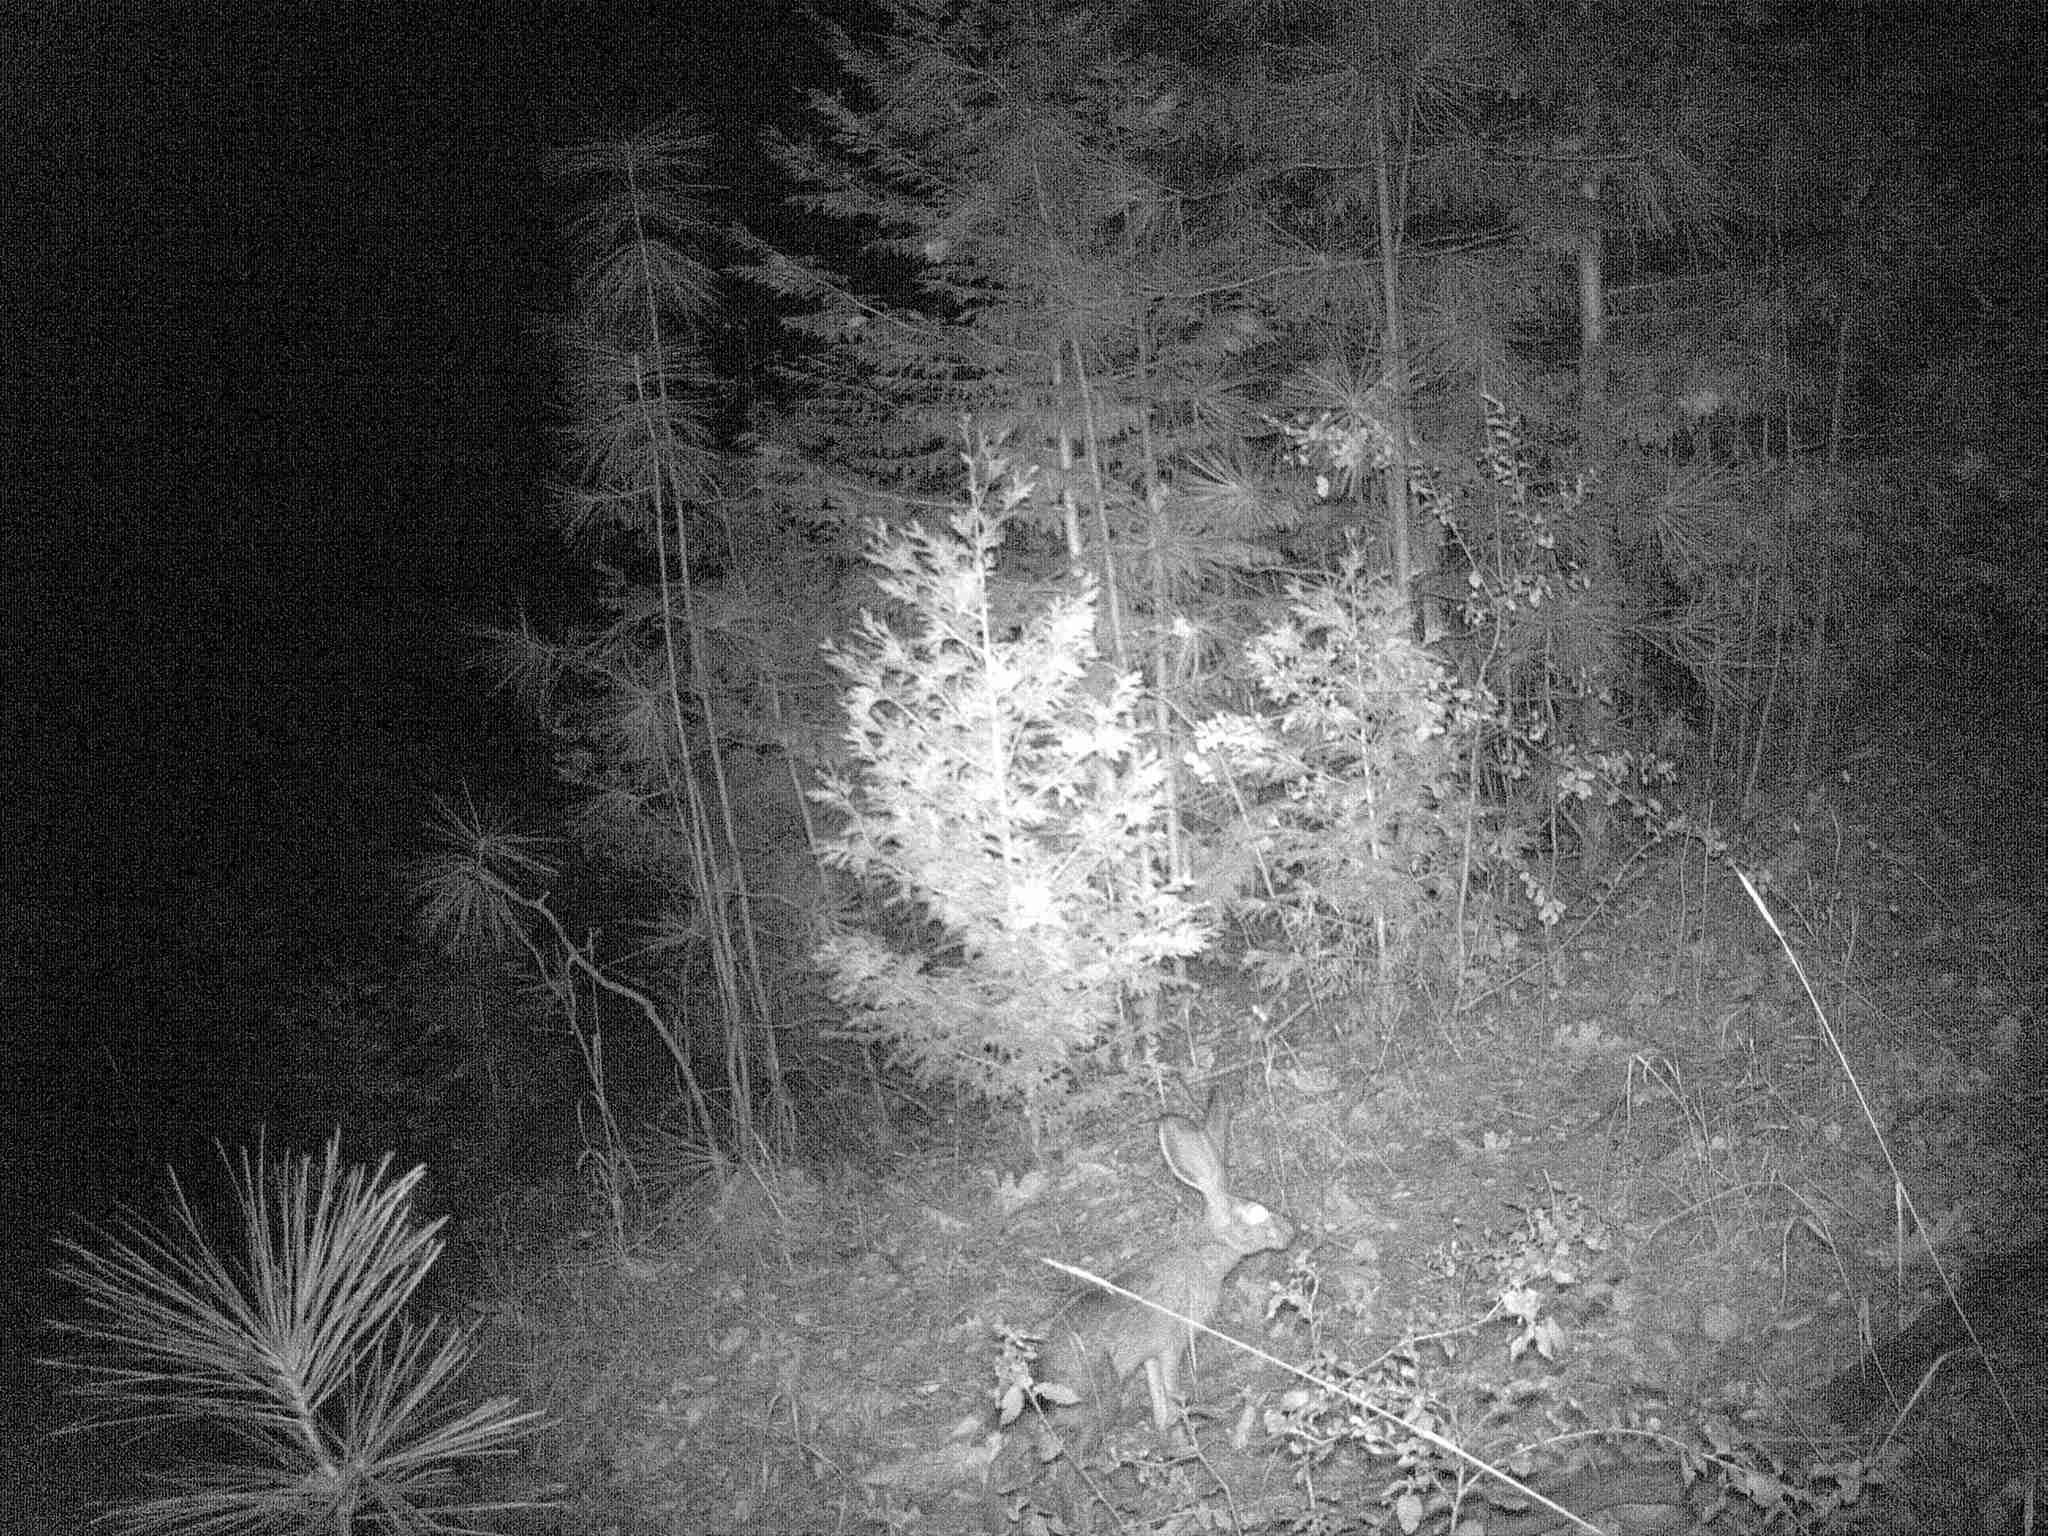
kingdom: Animalia
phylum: Chordata
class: Mammalia
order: Lagomorpha
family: Leporidae
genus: Lepus
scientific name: Lepus californicus
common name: Black-tailed jackrabbit
